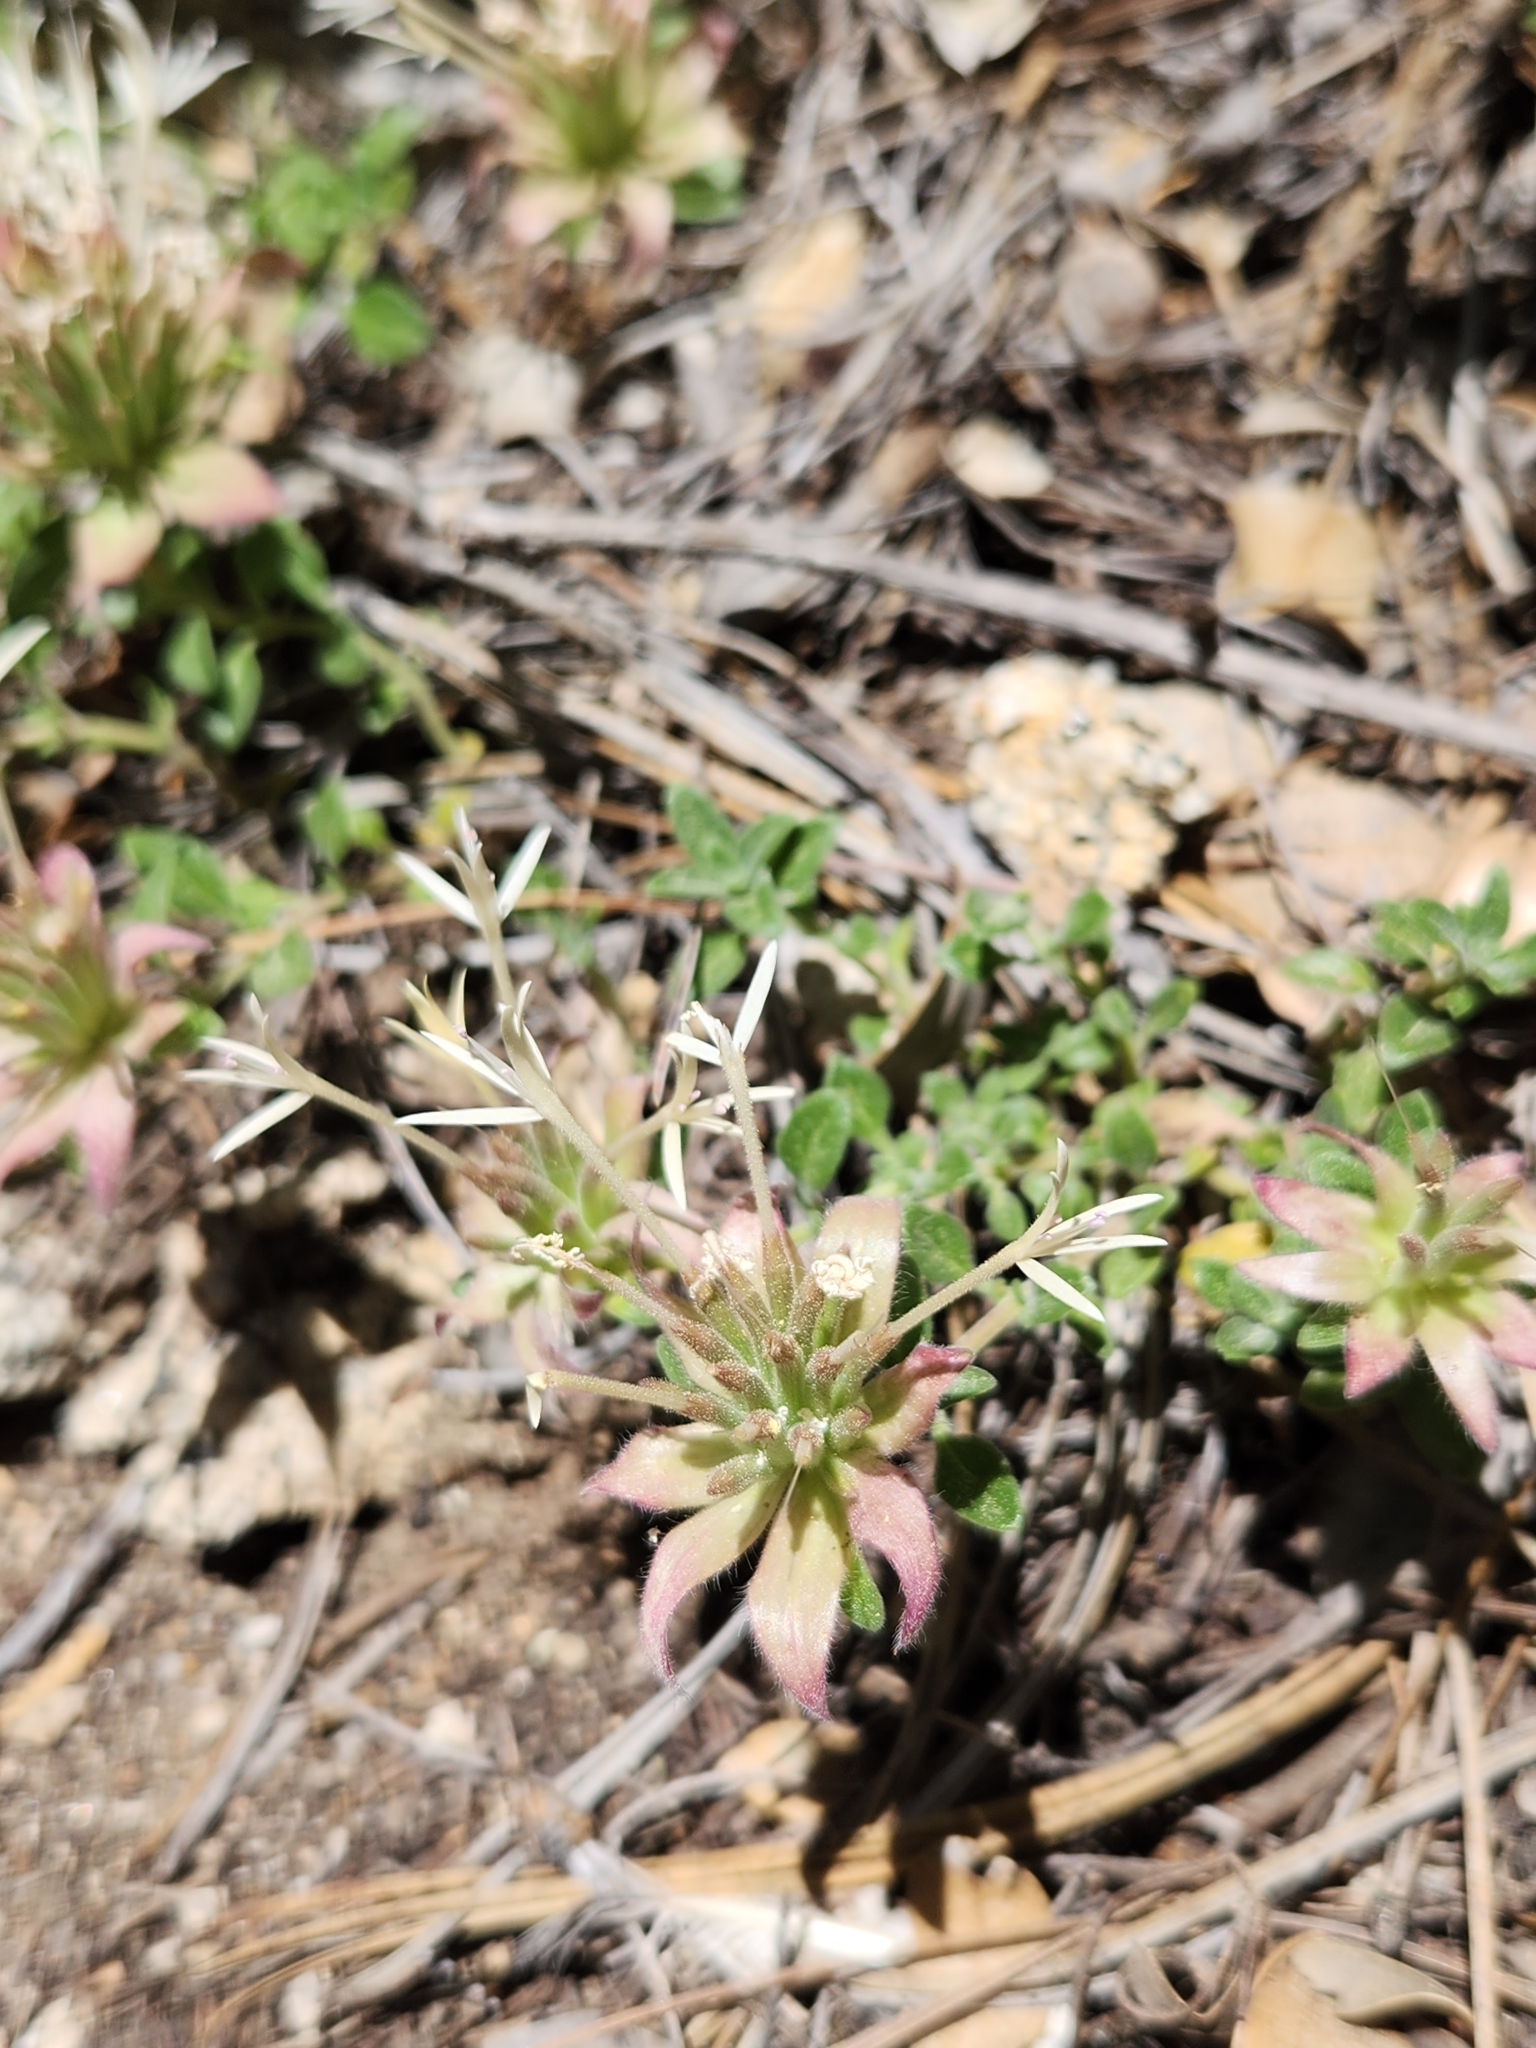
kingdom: Plantae
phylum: Tracheophyta
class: Magnoliopsida
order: Lamiales
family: Lamiaceae
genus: Monardella
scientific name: Monardella nana
